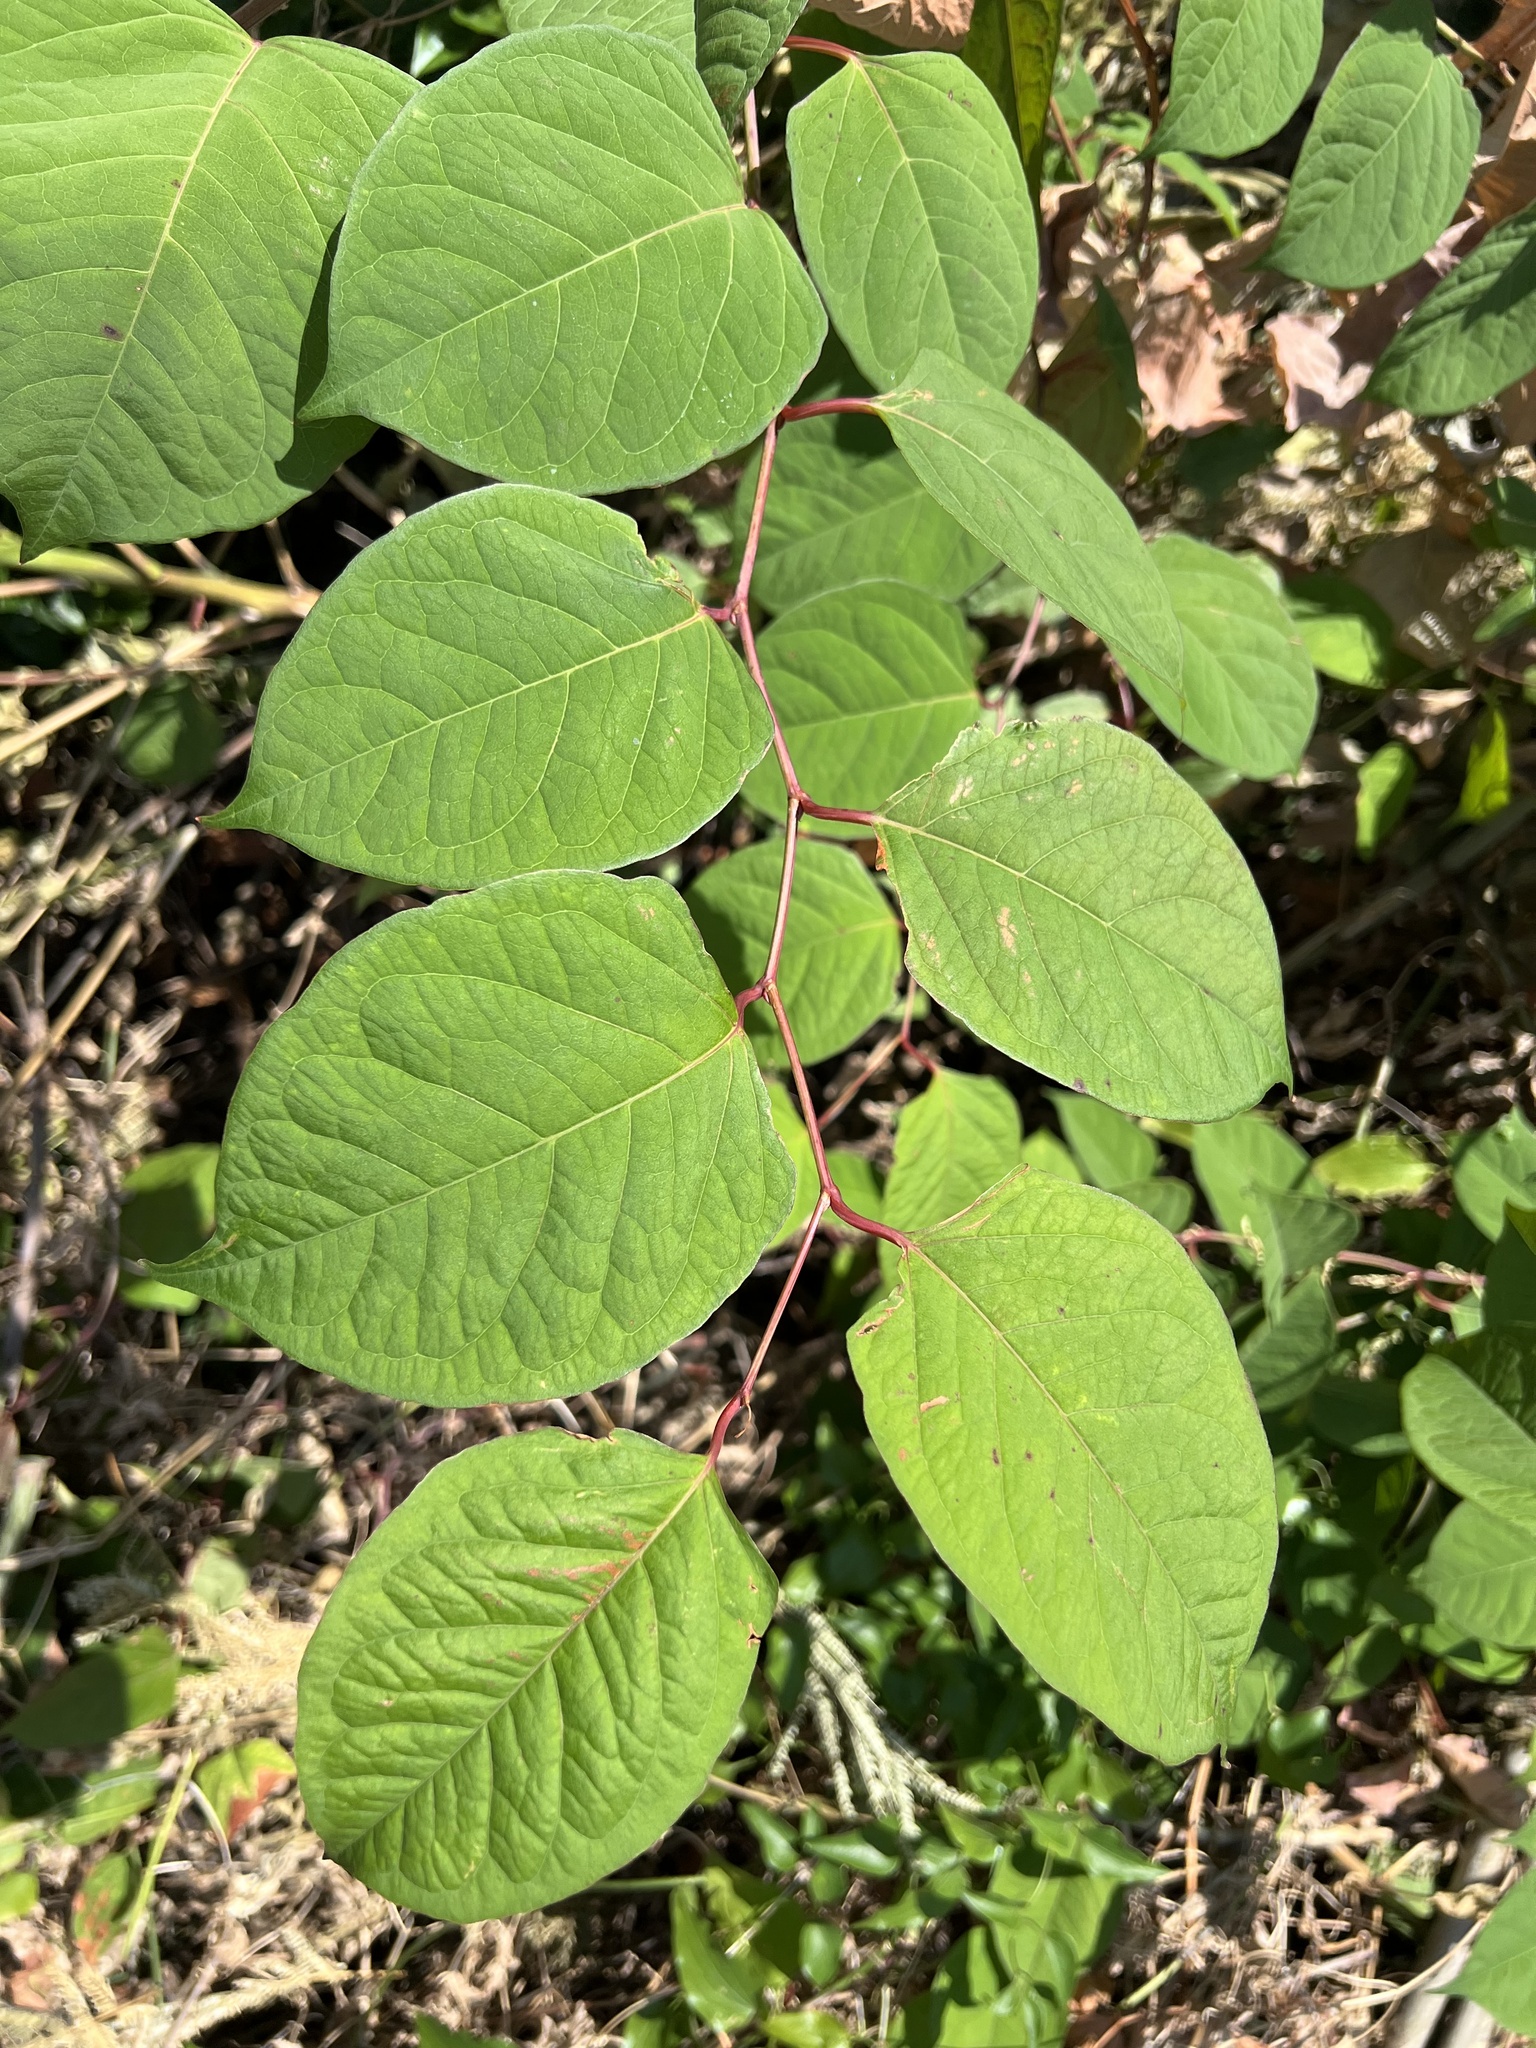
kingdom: Plantae
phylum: Tracheophyta
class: Magnoliopsida
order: Caryophyllales
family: Polygonaceae
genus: Reynoutria
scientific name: Reynoutria japonica
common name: Japanese knotweed
